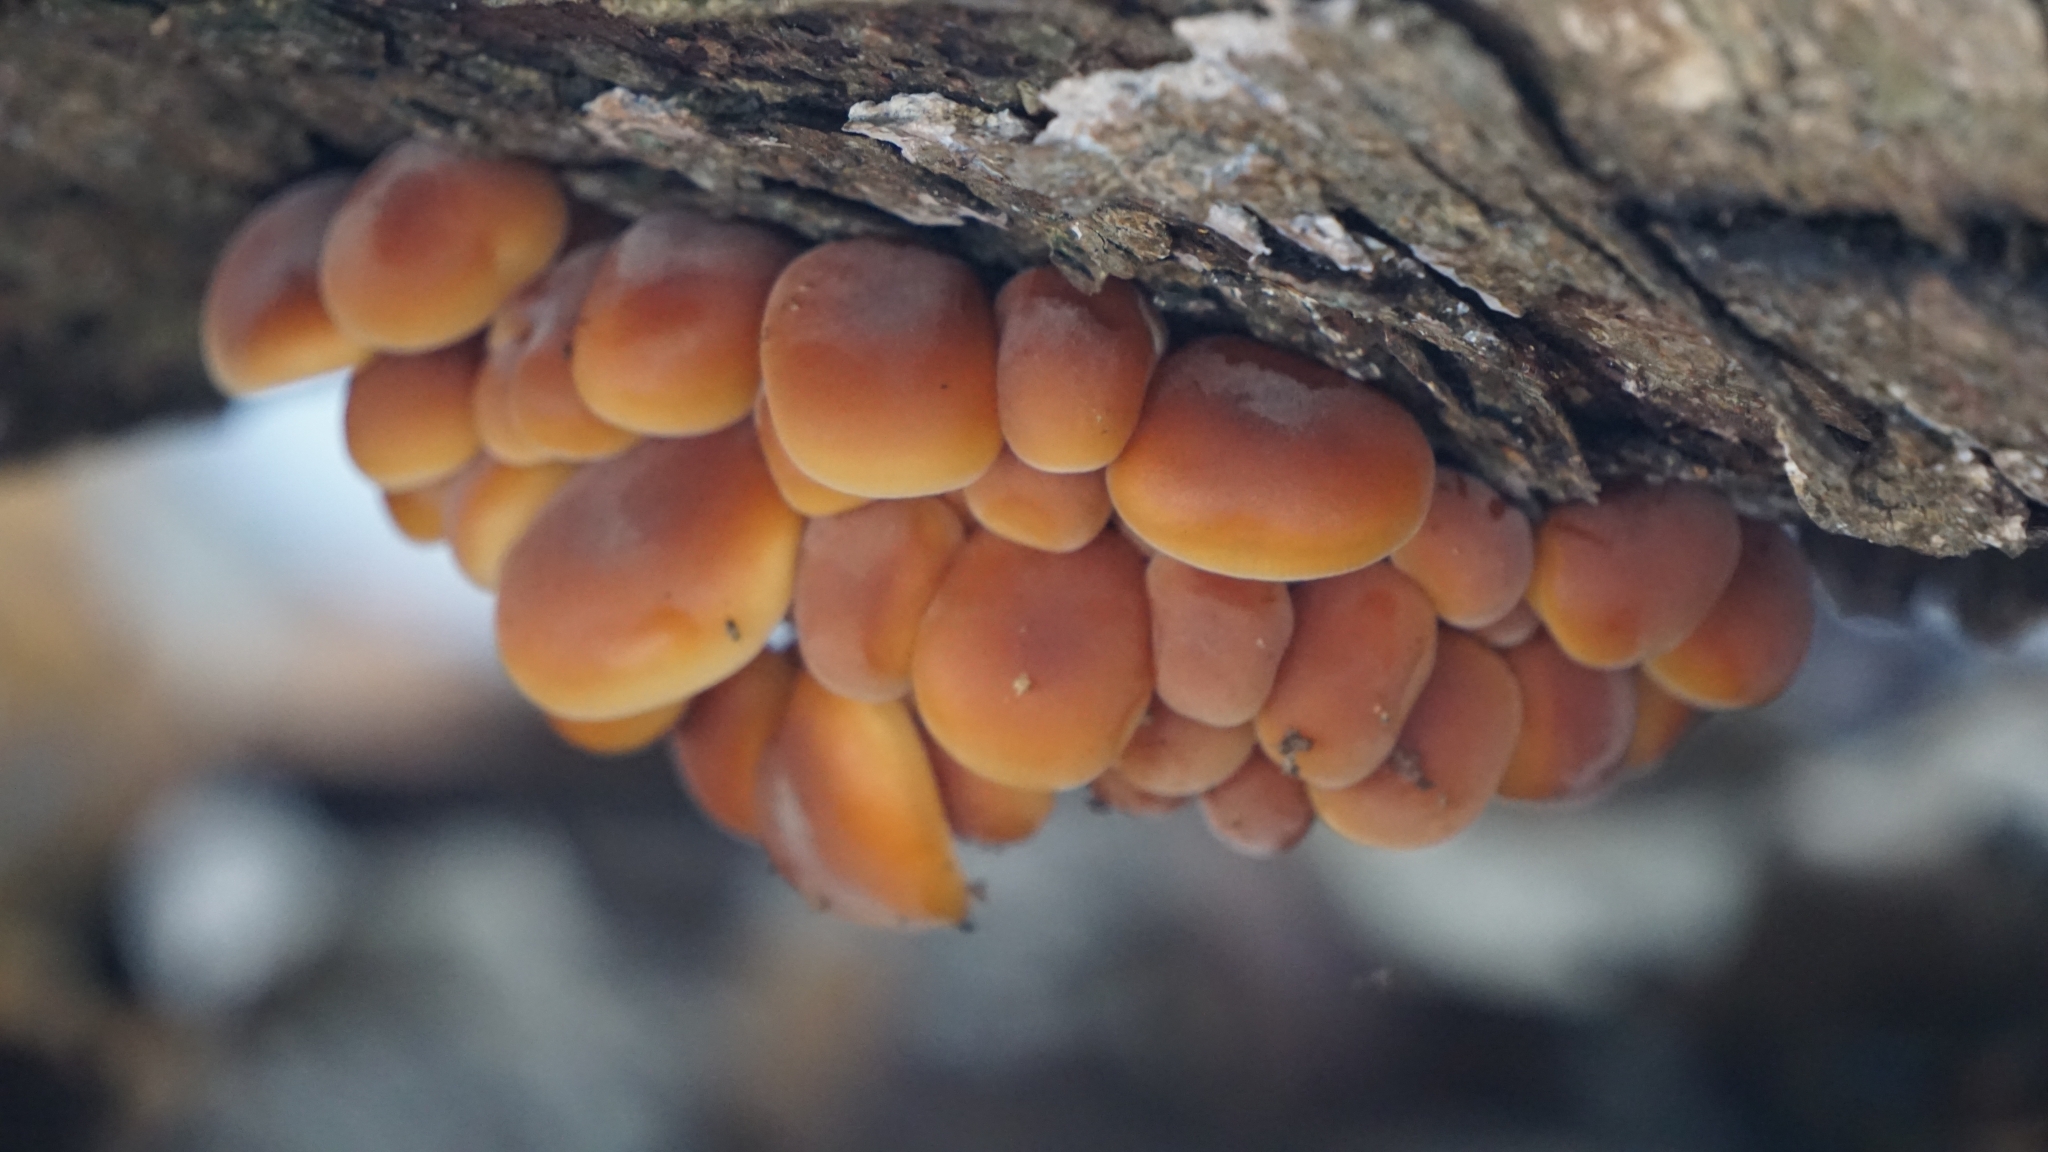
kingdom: Fungi
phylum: Basidiomycota
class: Agaricomycetes
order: Agaricales
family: Physalacriaceae
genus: Flammulina
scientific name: Flammulina
